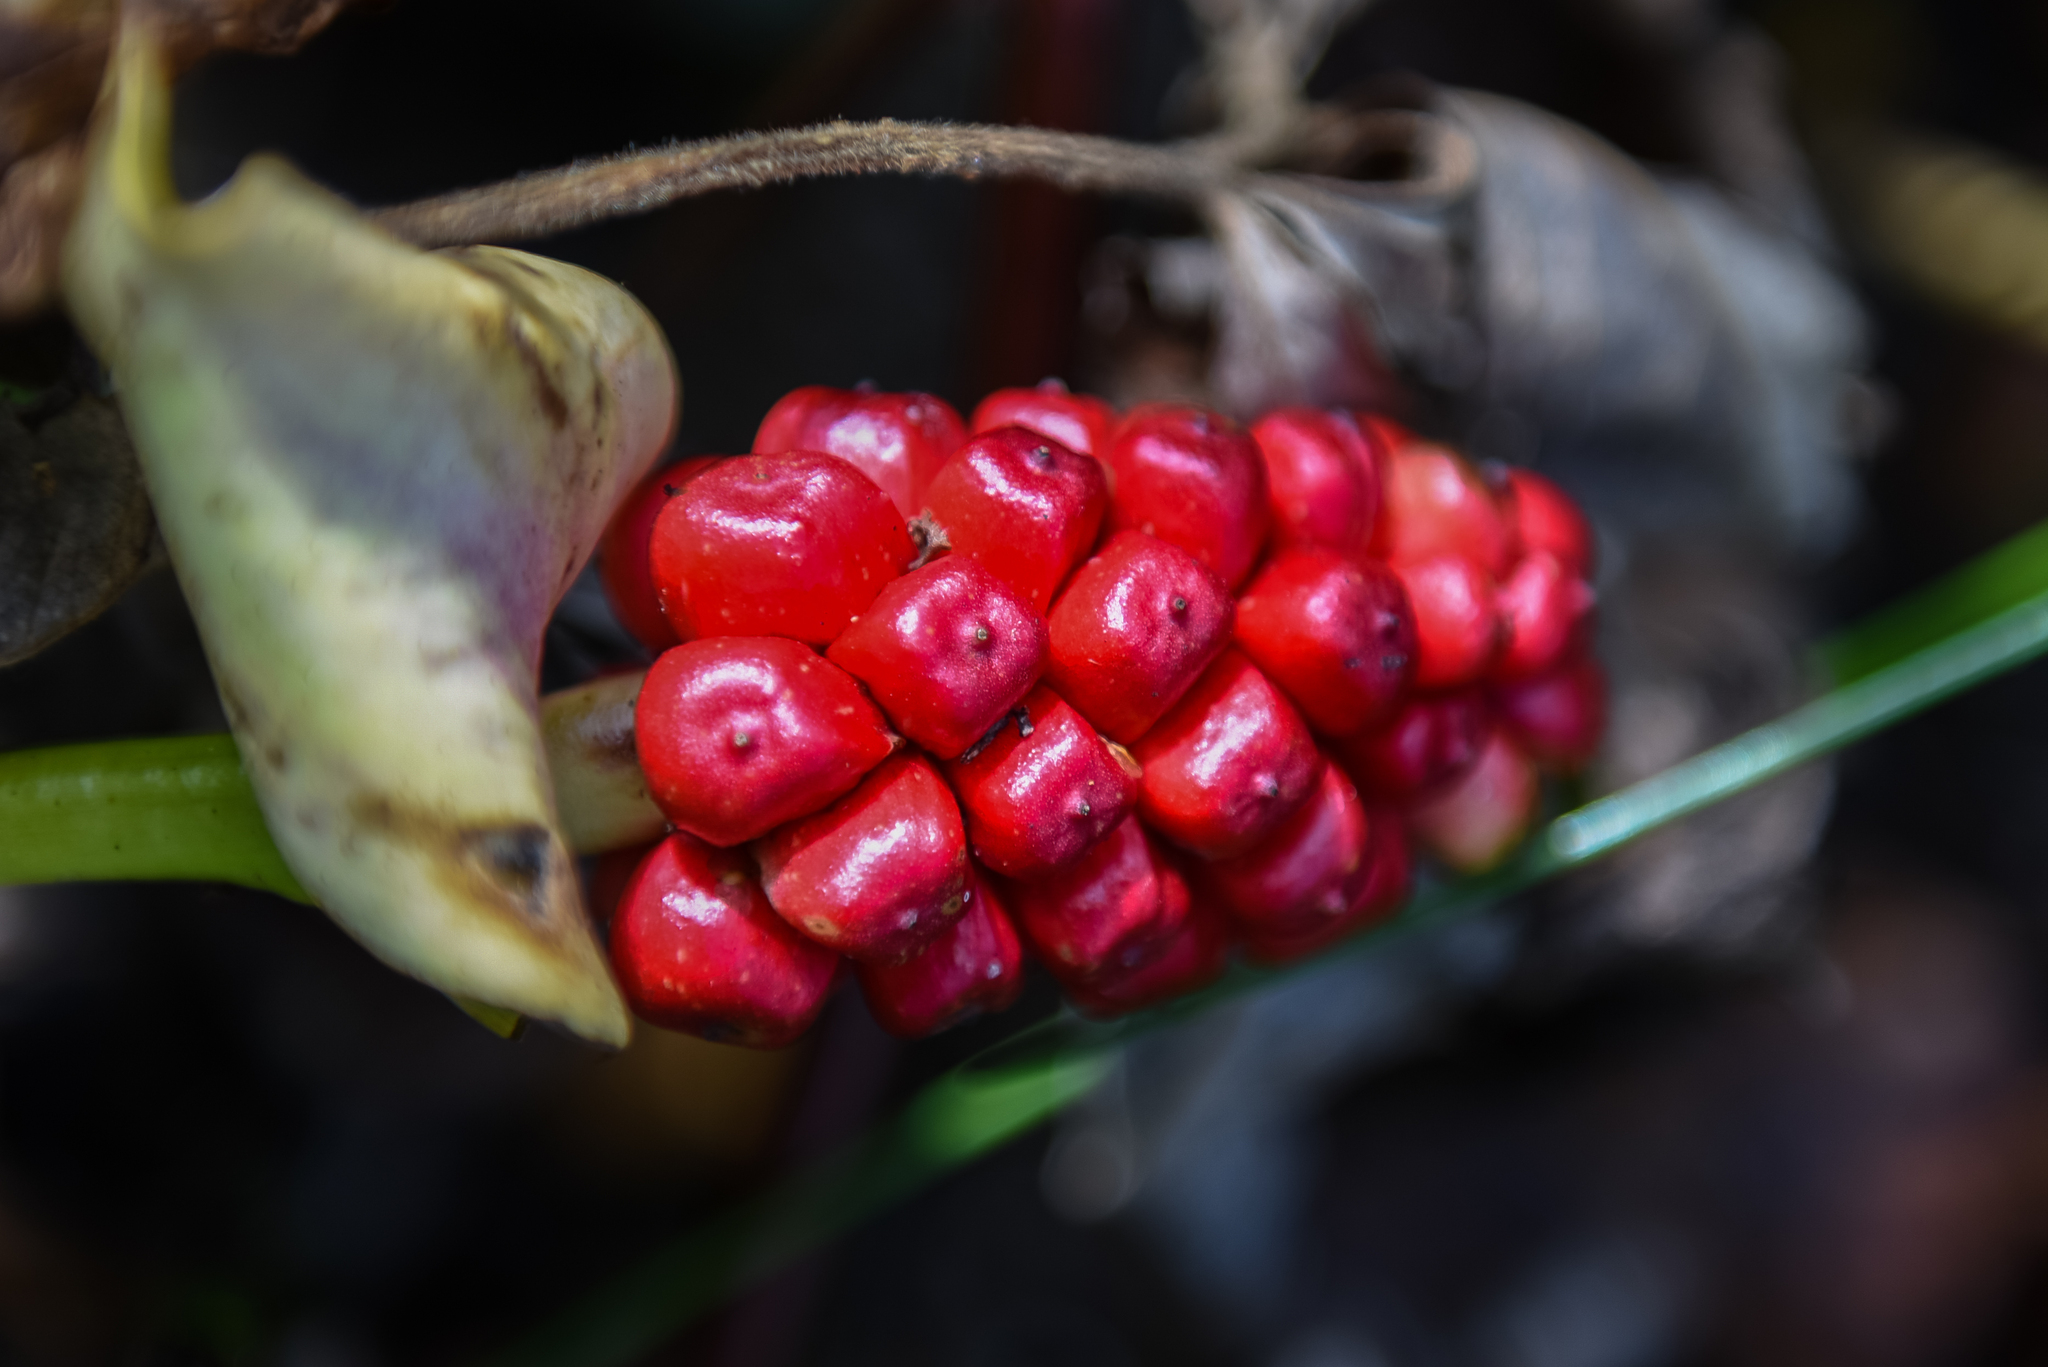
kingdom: Plantae
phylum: Tracheophyta
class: Liliopsida
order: Alismatales
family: Araceae
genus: Calla
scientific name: Calla palustris
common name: Bog arum
